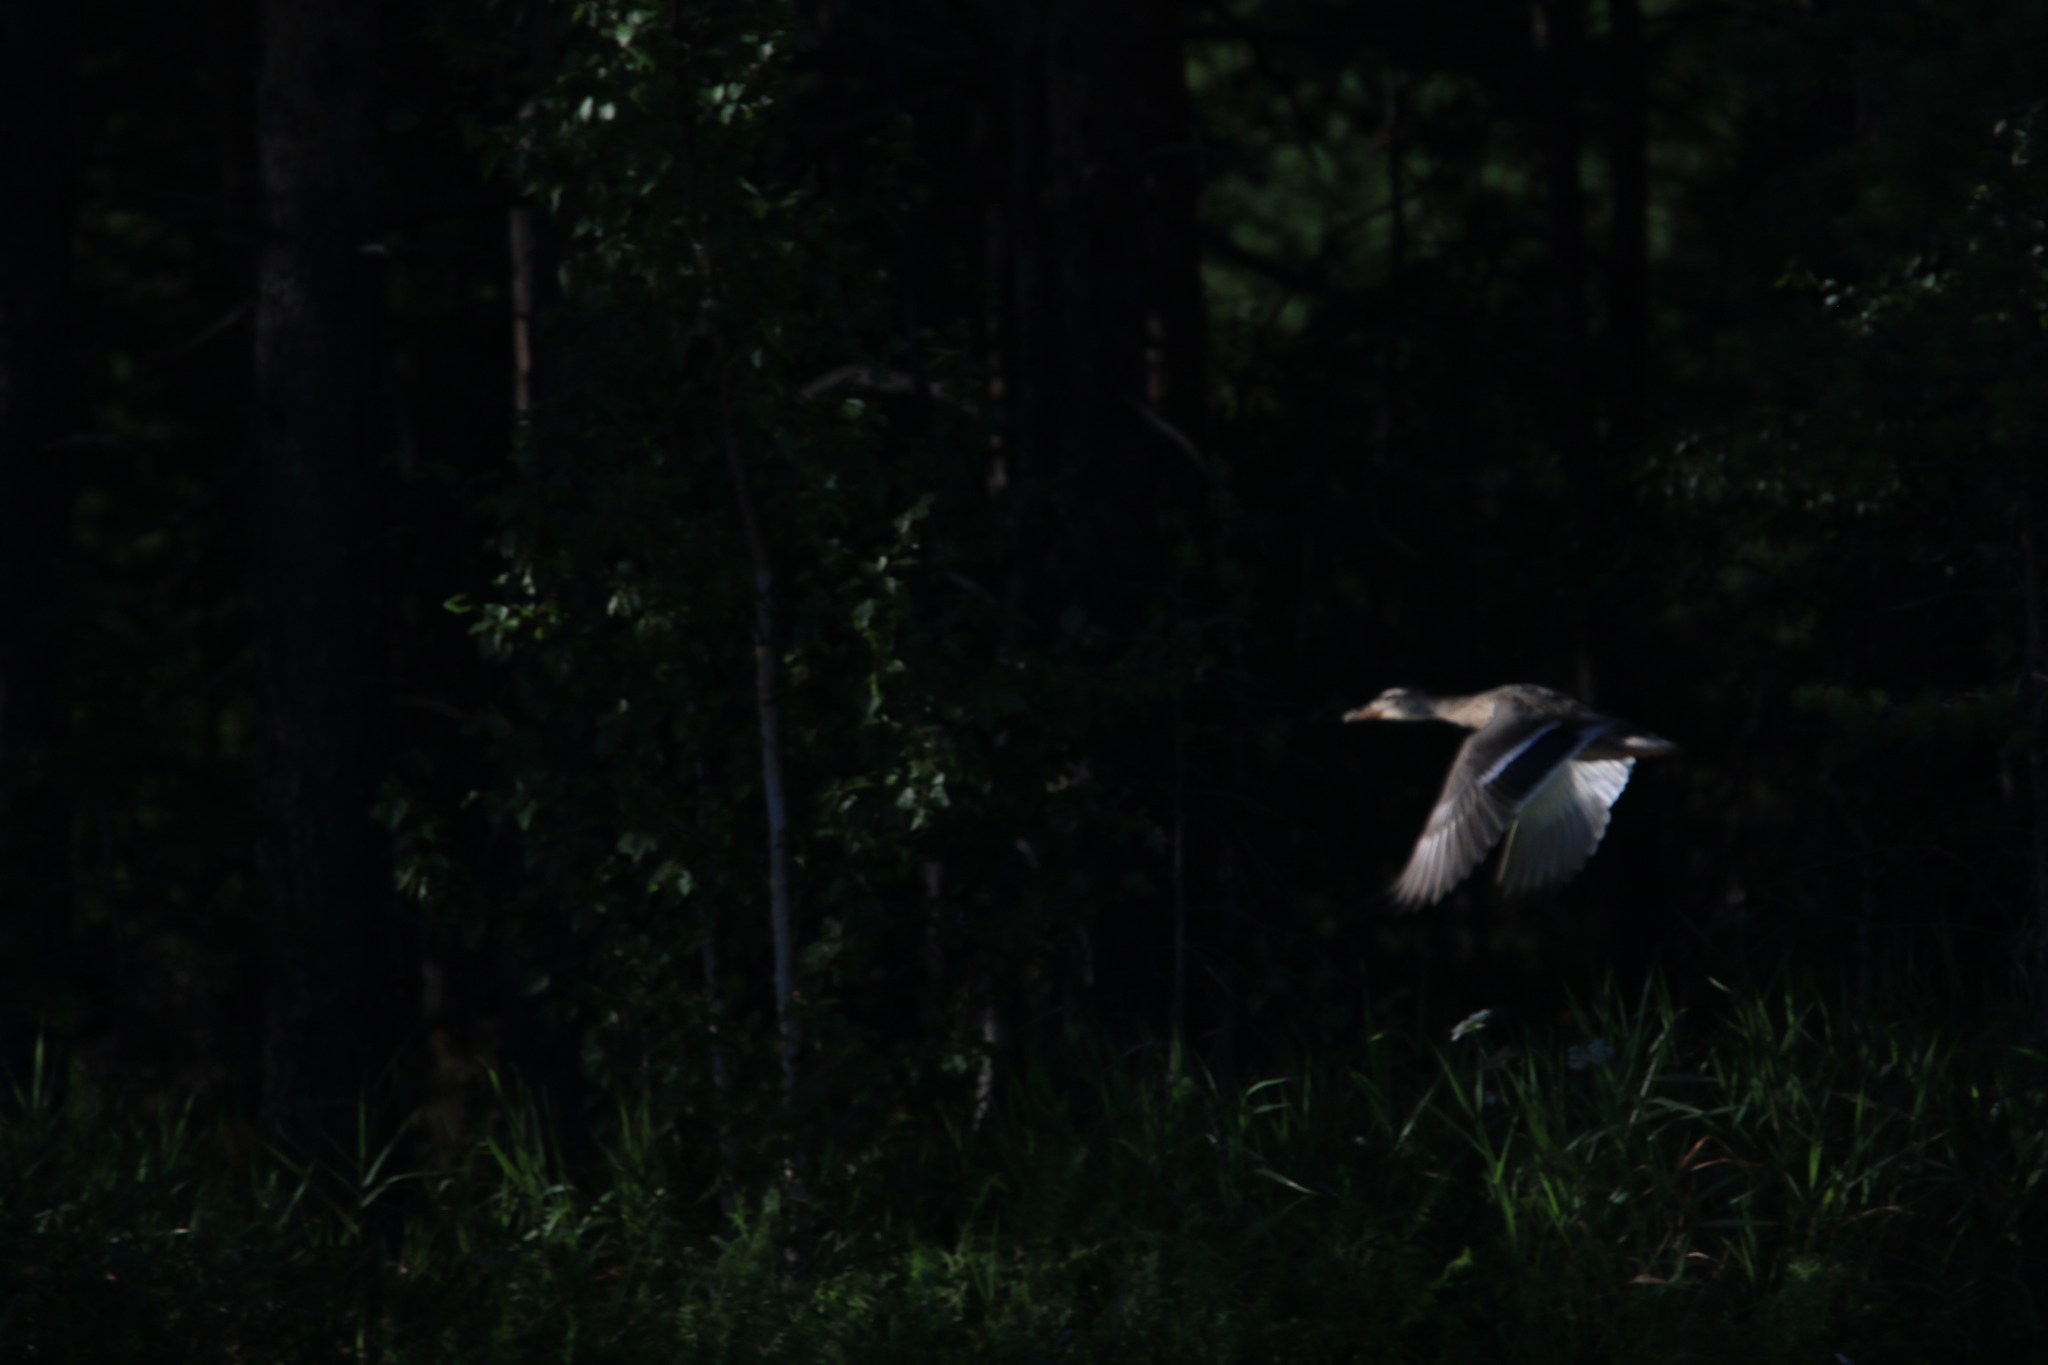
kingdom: Animalia
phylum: Chordata
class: Aves
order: Anseriformes
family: Anatidae
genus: Anas
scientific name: Anas platyrhynchos
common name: Mallard
